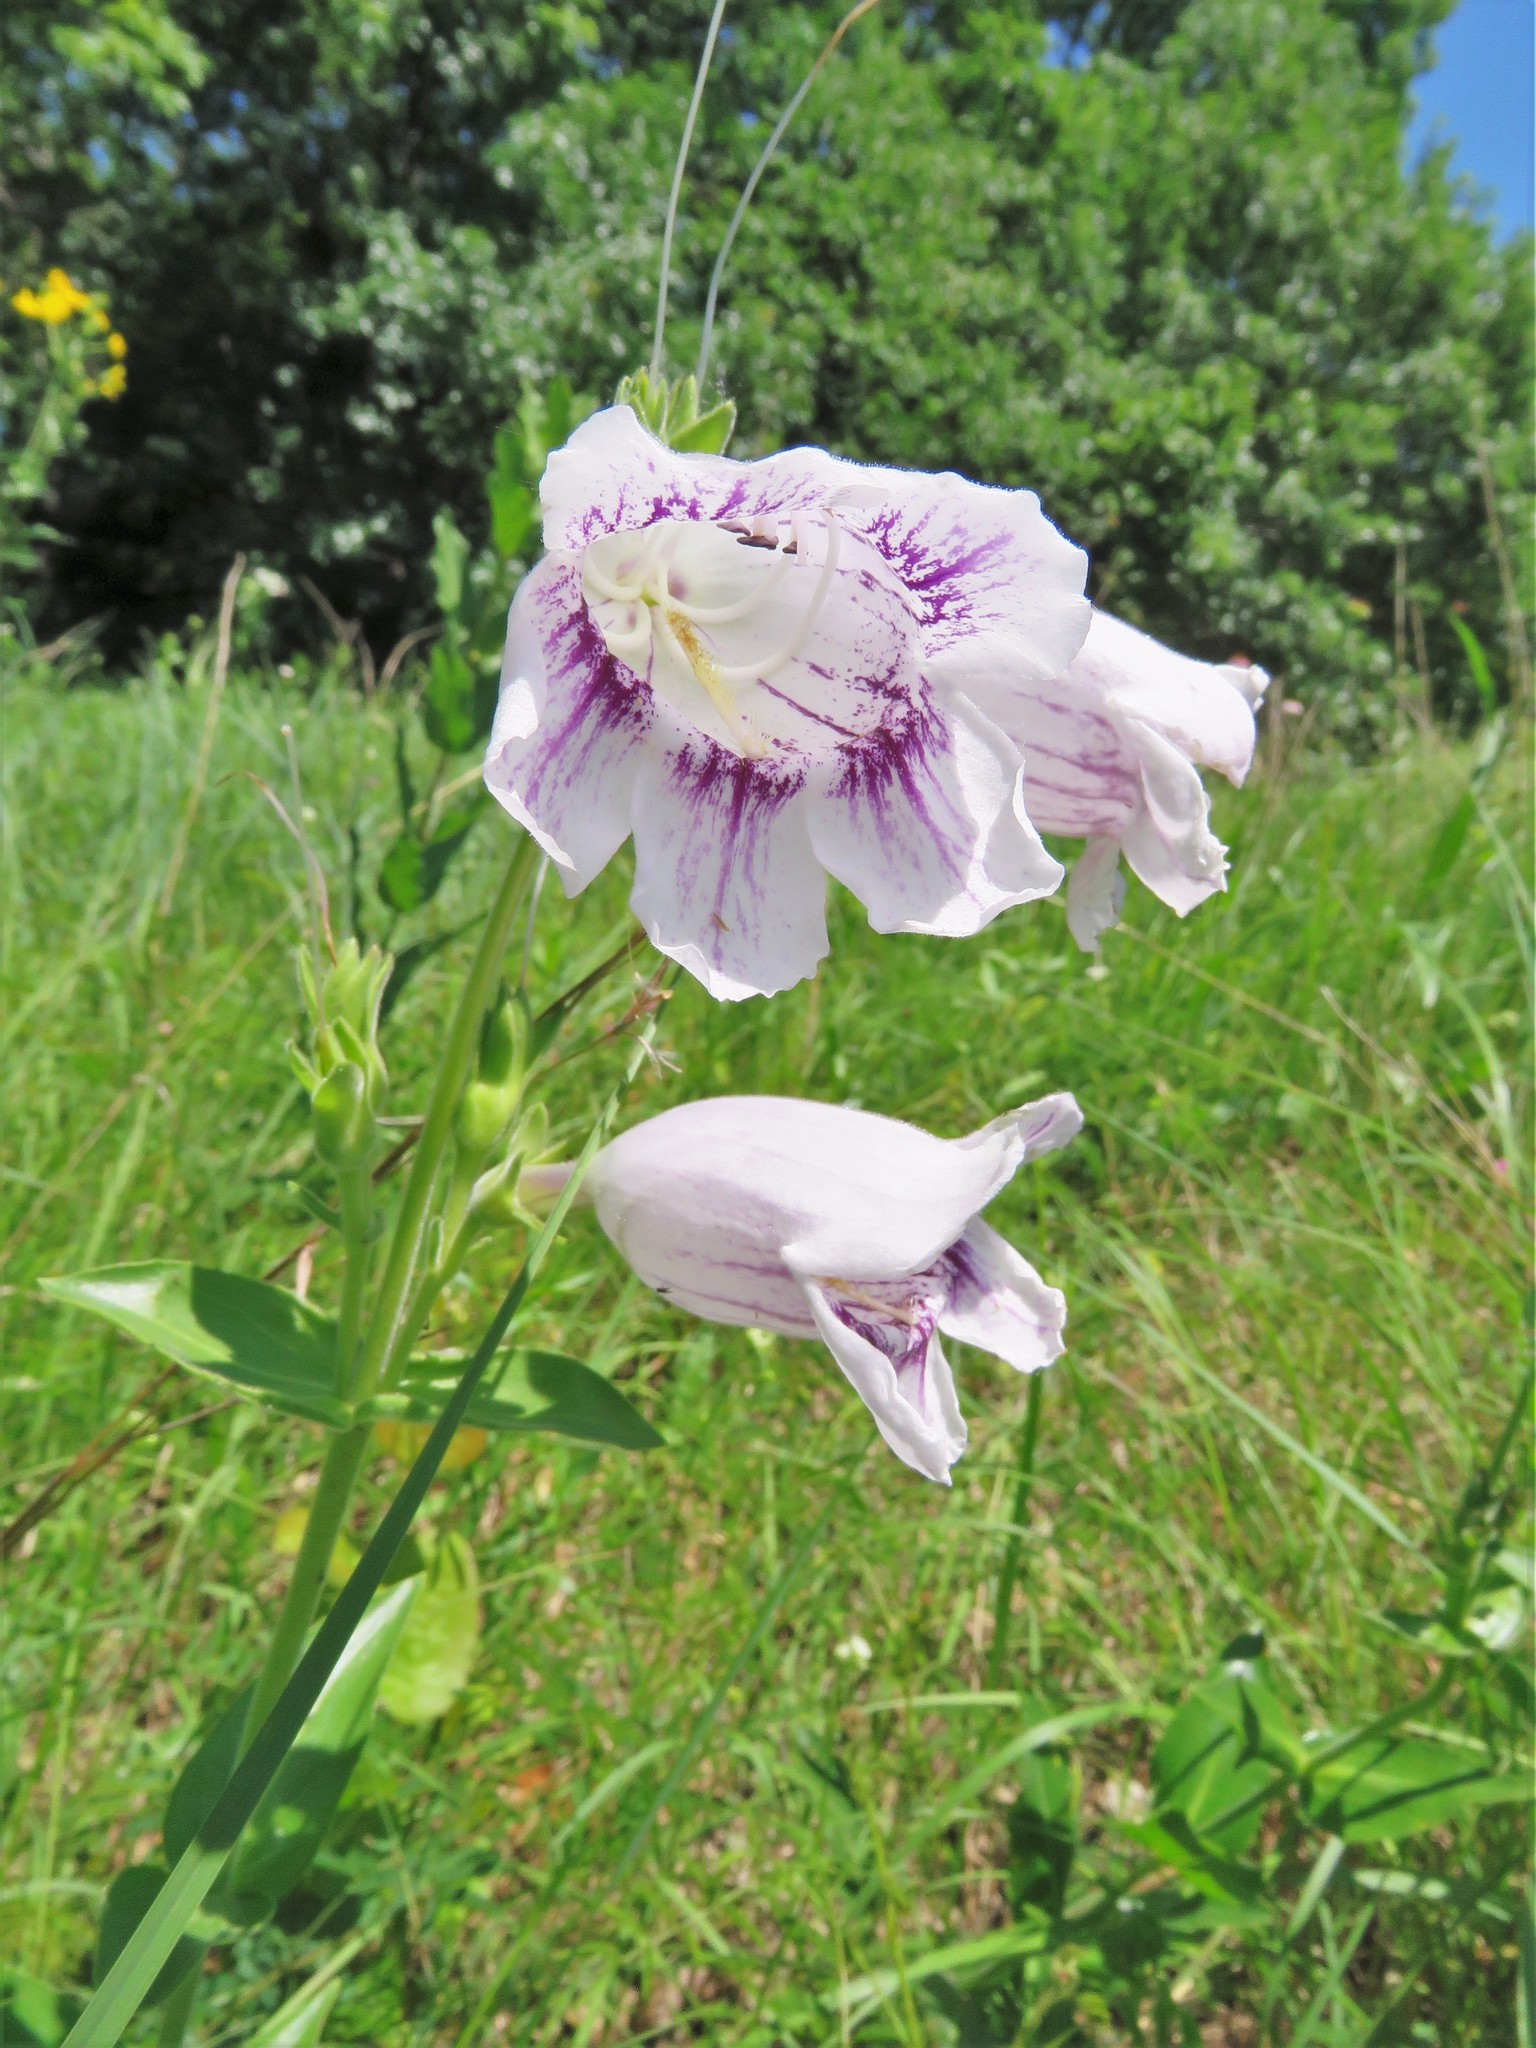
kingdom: Plantae
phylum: Tracheophyta
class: Magnoliopsida
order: Lamiales
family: Plantaginaceae
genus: Penstemon
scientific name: Penstemon cobaea
